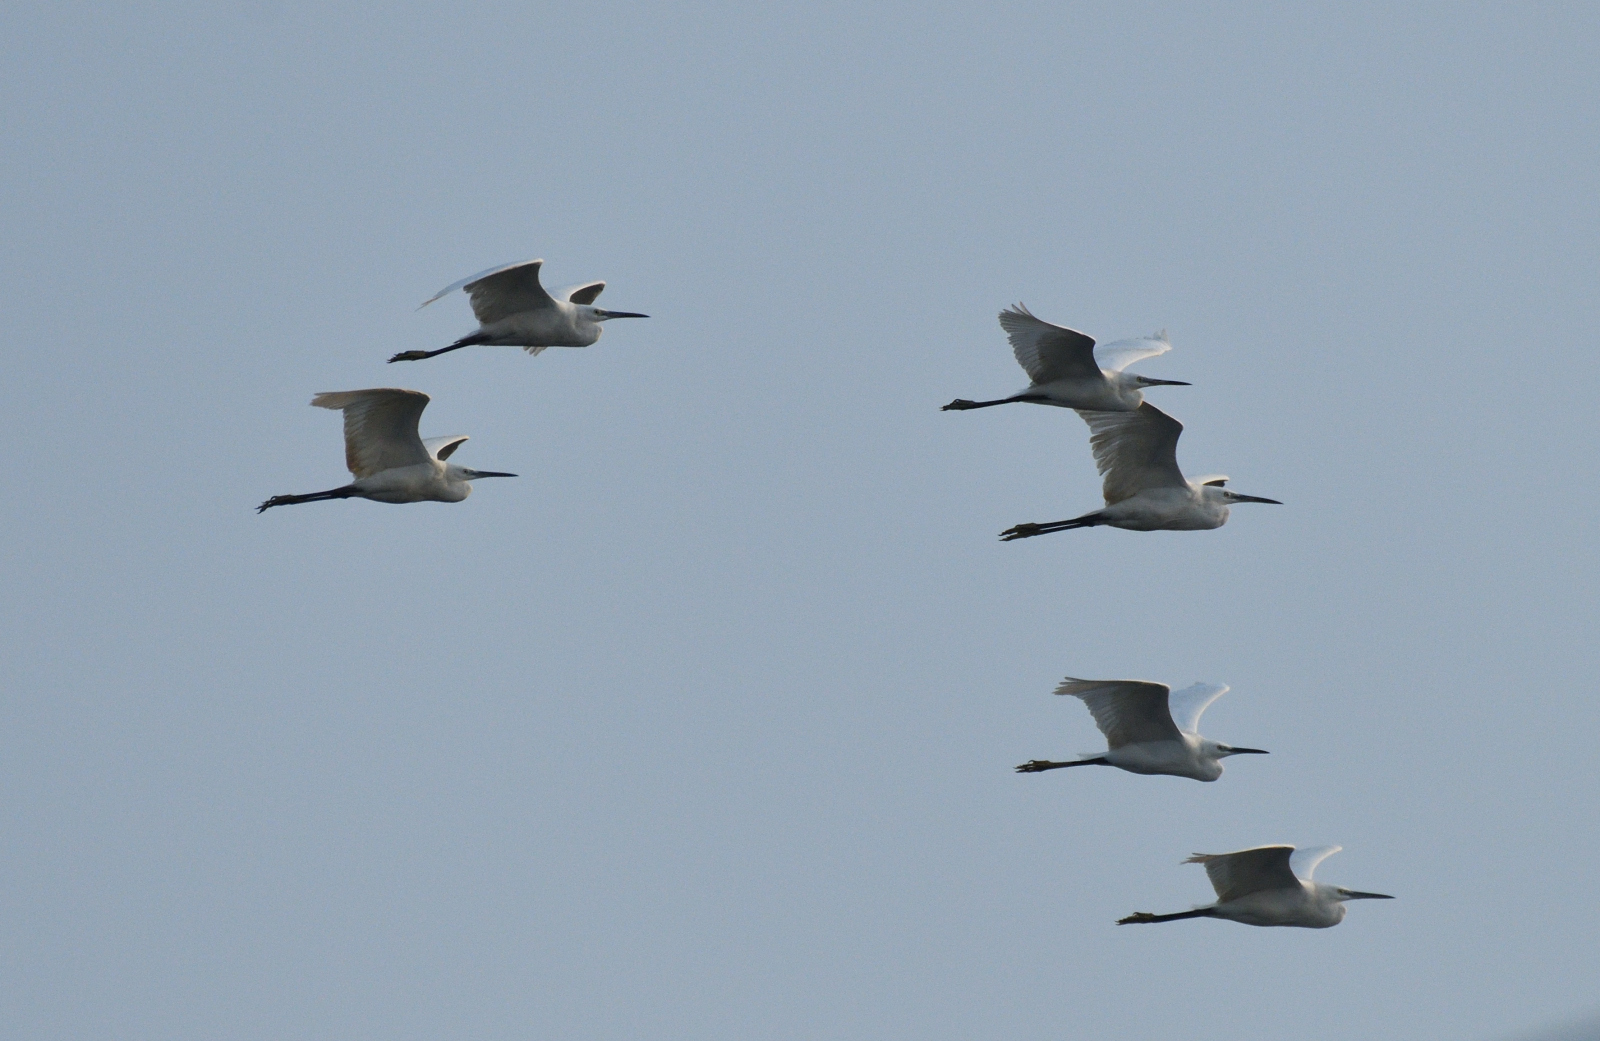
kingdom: Animalia
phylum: Chordata
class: Aves
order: Pelecaniformes
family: Ardeidae
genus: Egretta
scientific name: Egretta garzetta
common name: Little egret
